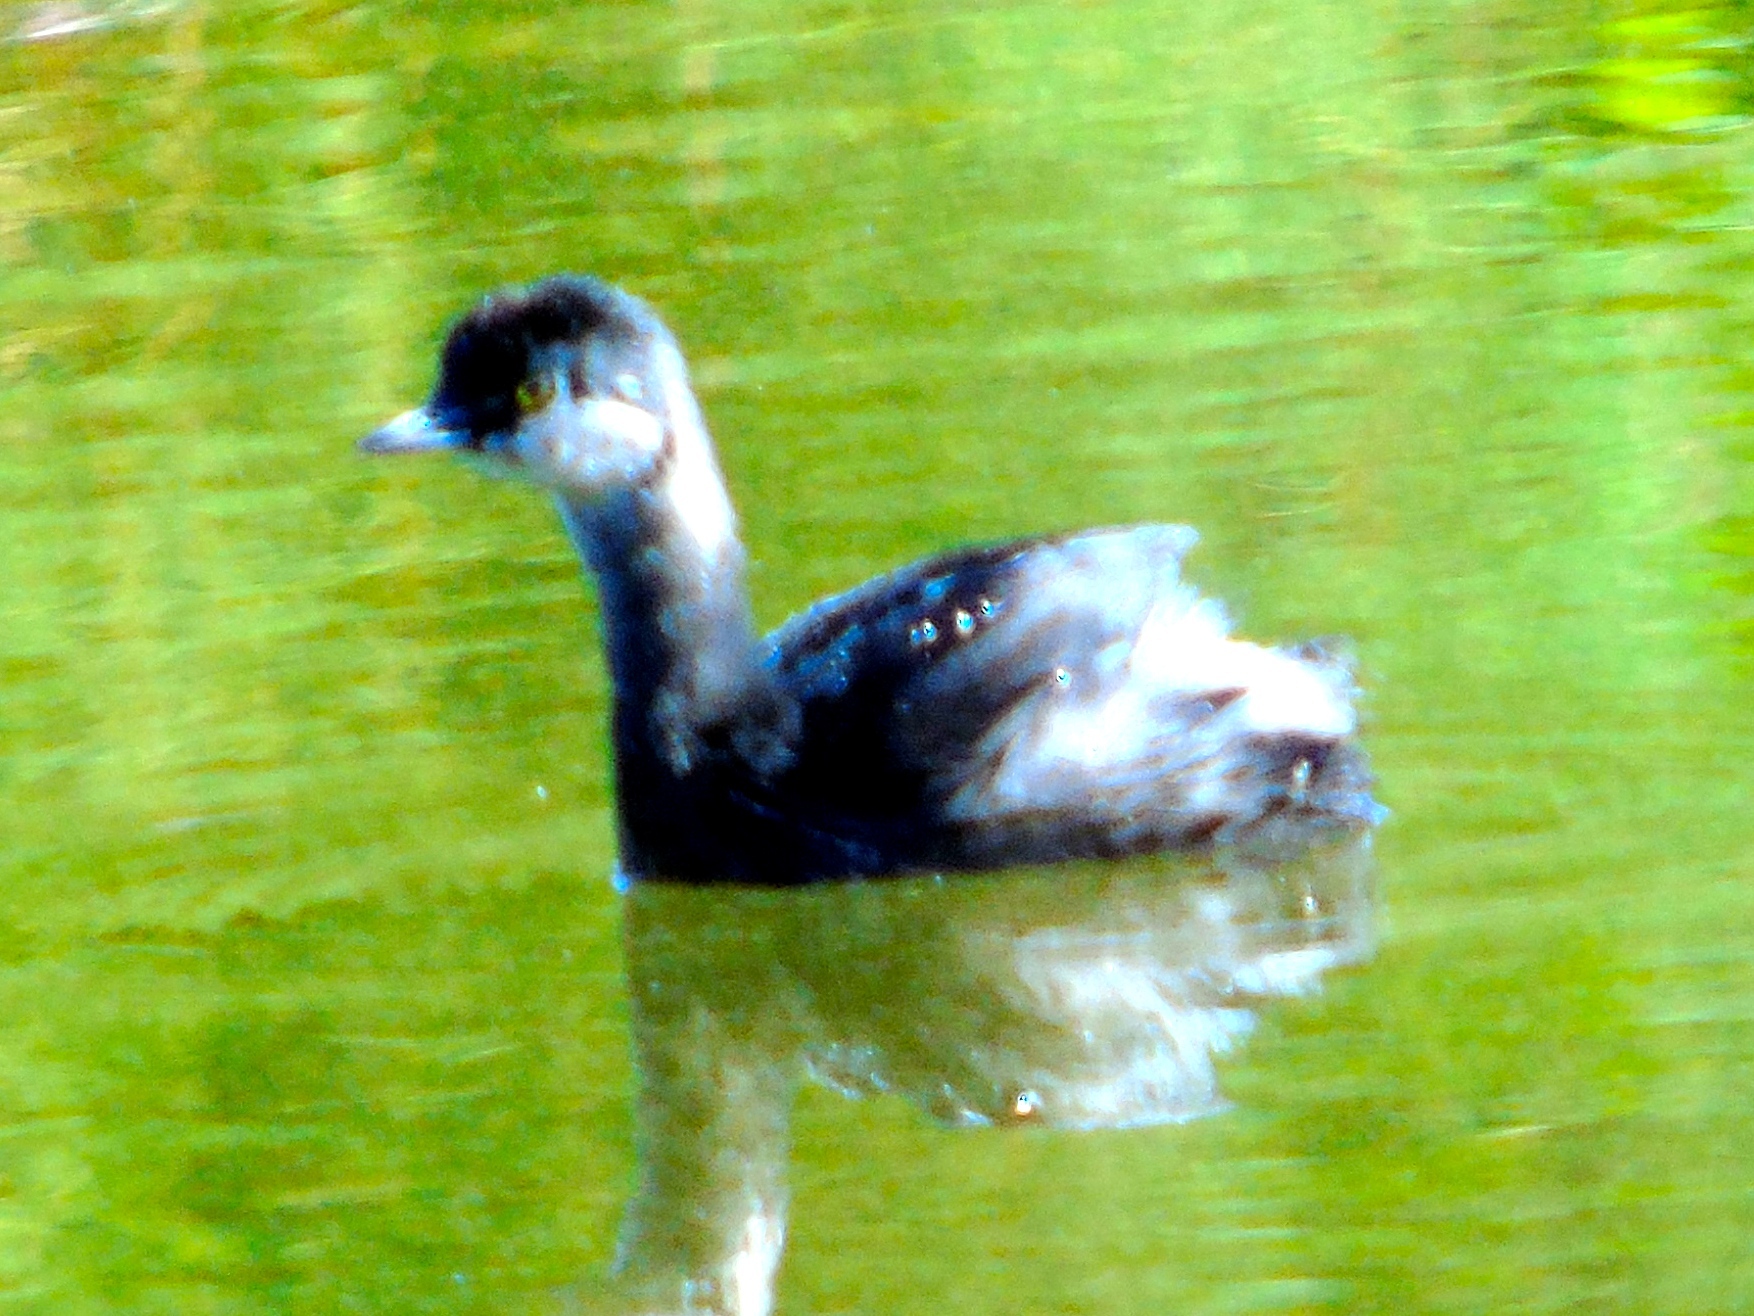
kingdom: Animalia
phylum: Chordata
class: Aves
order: Podicipediformes
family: Podicipedidae
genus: Tachybaptus
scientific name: Tachybaptus dominicus
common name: Least grebe
